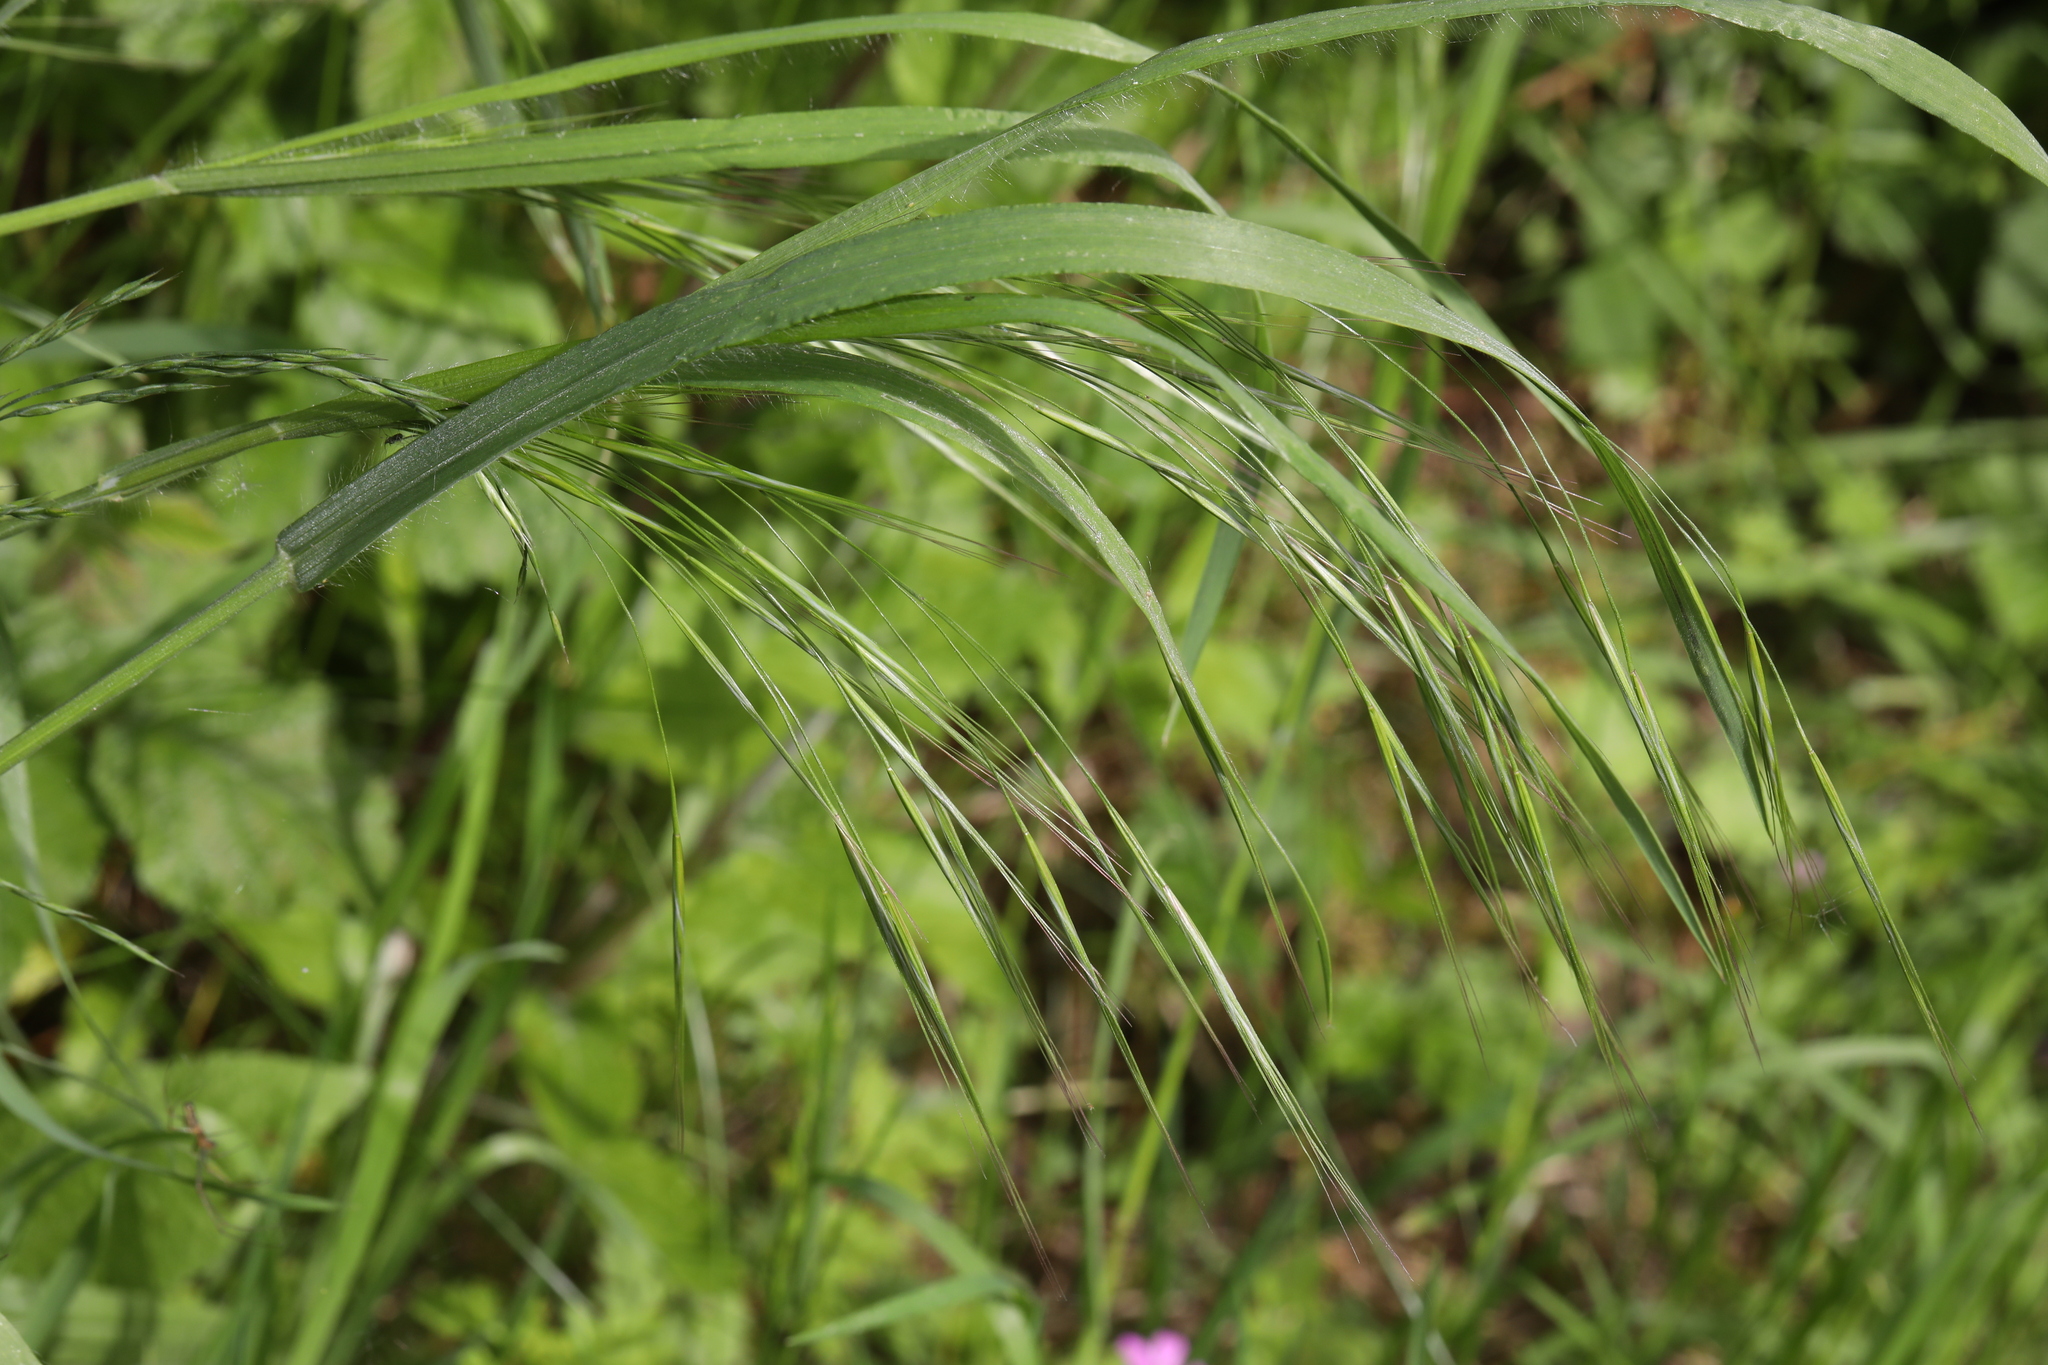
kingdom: Plantae
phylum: Tracheophyta
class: Liliopsida
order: Poales
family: Poaceae
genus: Bromus
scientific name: Bromus sterilis
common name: Poverty brome
